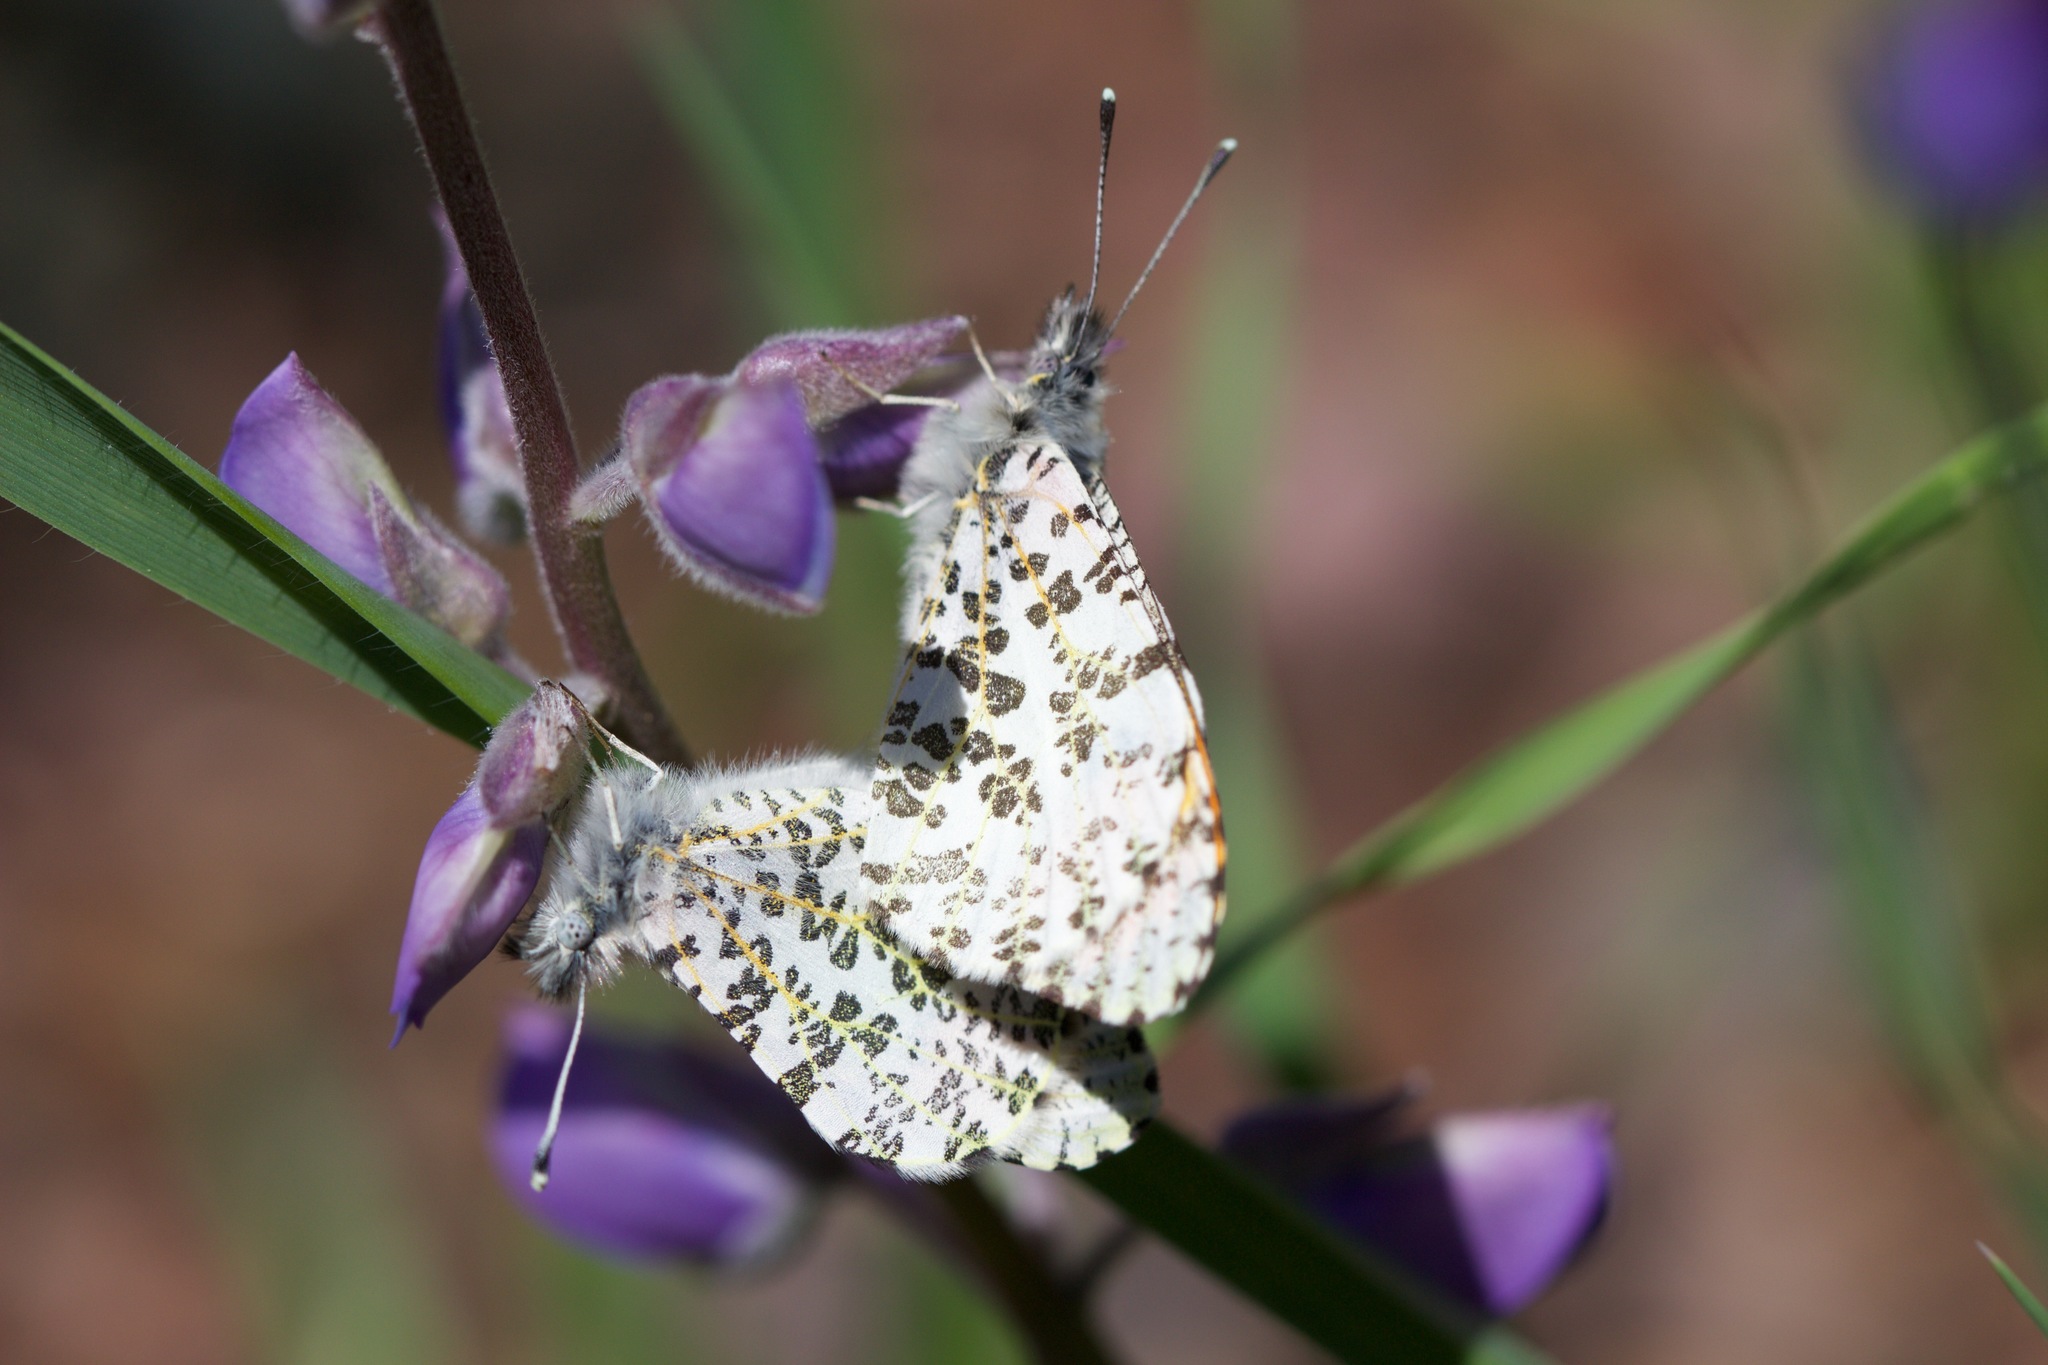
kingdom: Animalia
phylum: Arthropoda
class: Insecta
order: Lepidoptera
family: Pieridae
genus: Anthocharis
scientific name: Anthocharis sara
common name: Sara's orangetip
